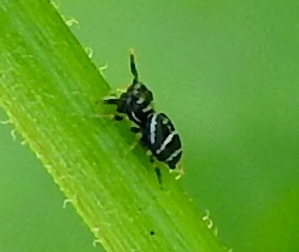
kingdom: Animalia
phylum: Arthropoda
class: Arachnida
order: Araneae
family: Salticidae
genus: Sassacus
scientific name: Sassacus
